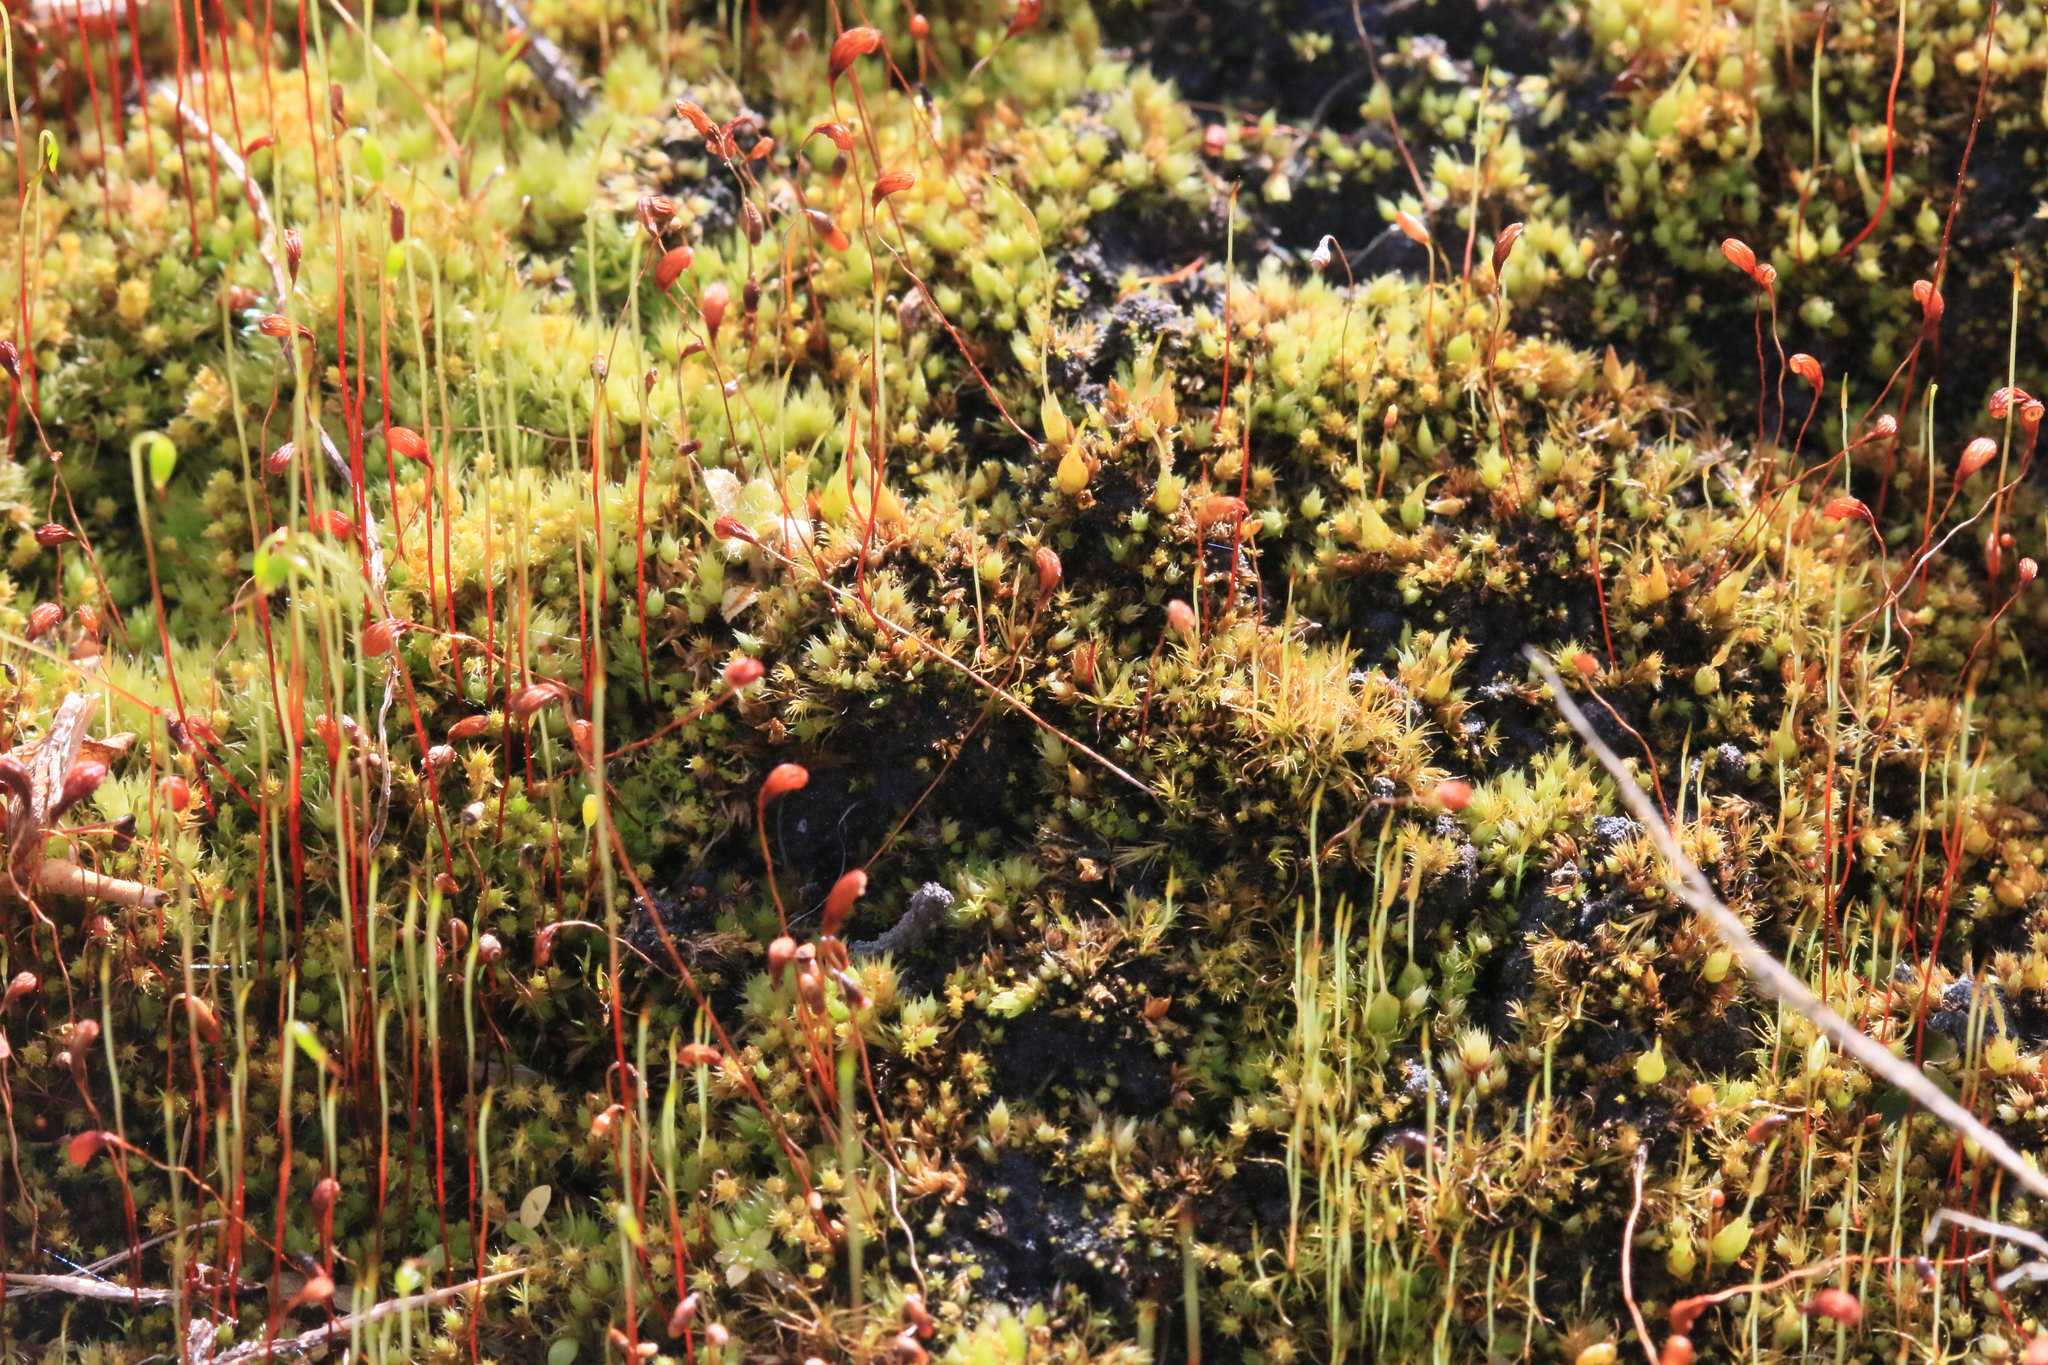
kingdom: Plantae
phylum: Bryophyta
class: Bryopsida
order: Funariales
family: Funariaceae
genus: Funaria
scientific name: Funaria hygrometrica
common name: Common cord moss
